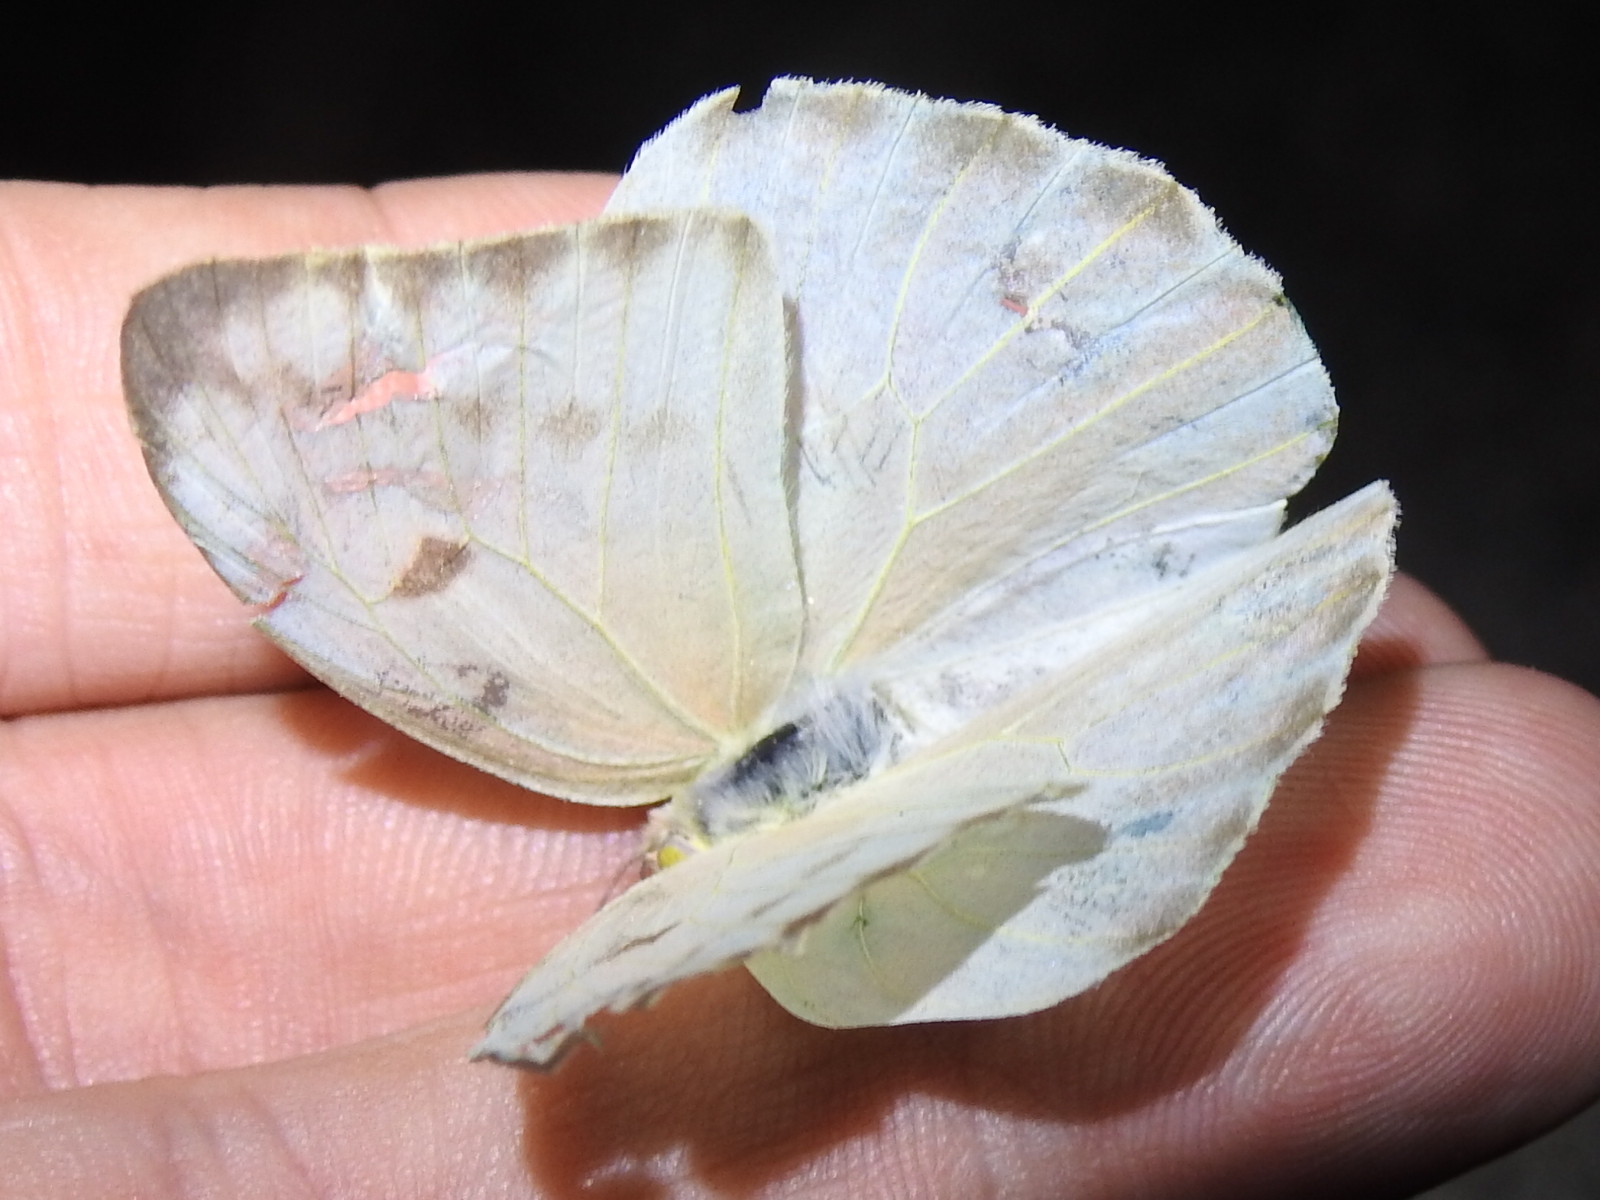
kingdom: Animalia
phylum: Arthropoda
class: Insecta
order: Lepidoptera
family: Pieridae
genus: Kricogonia
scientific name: Kricogonia lyside
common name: Guayacan sulphur,
